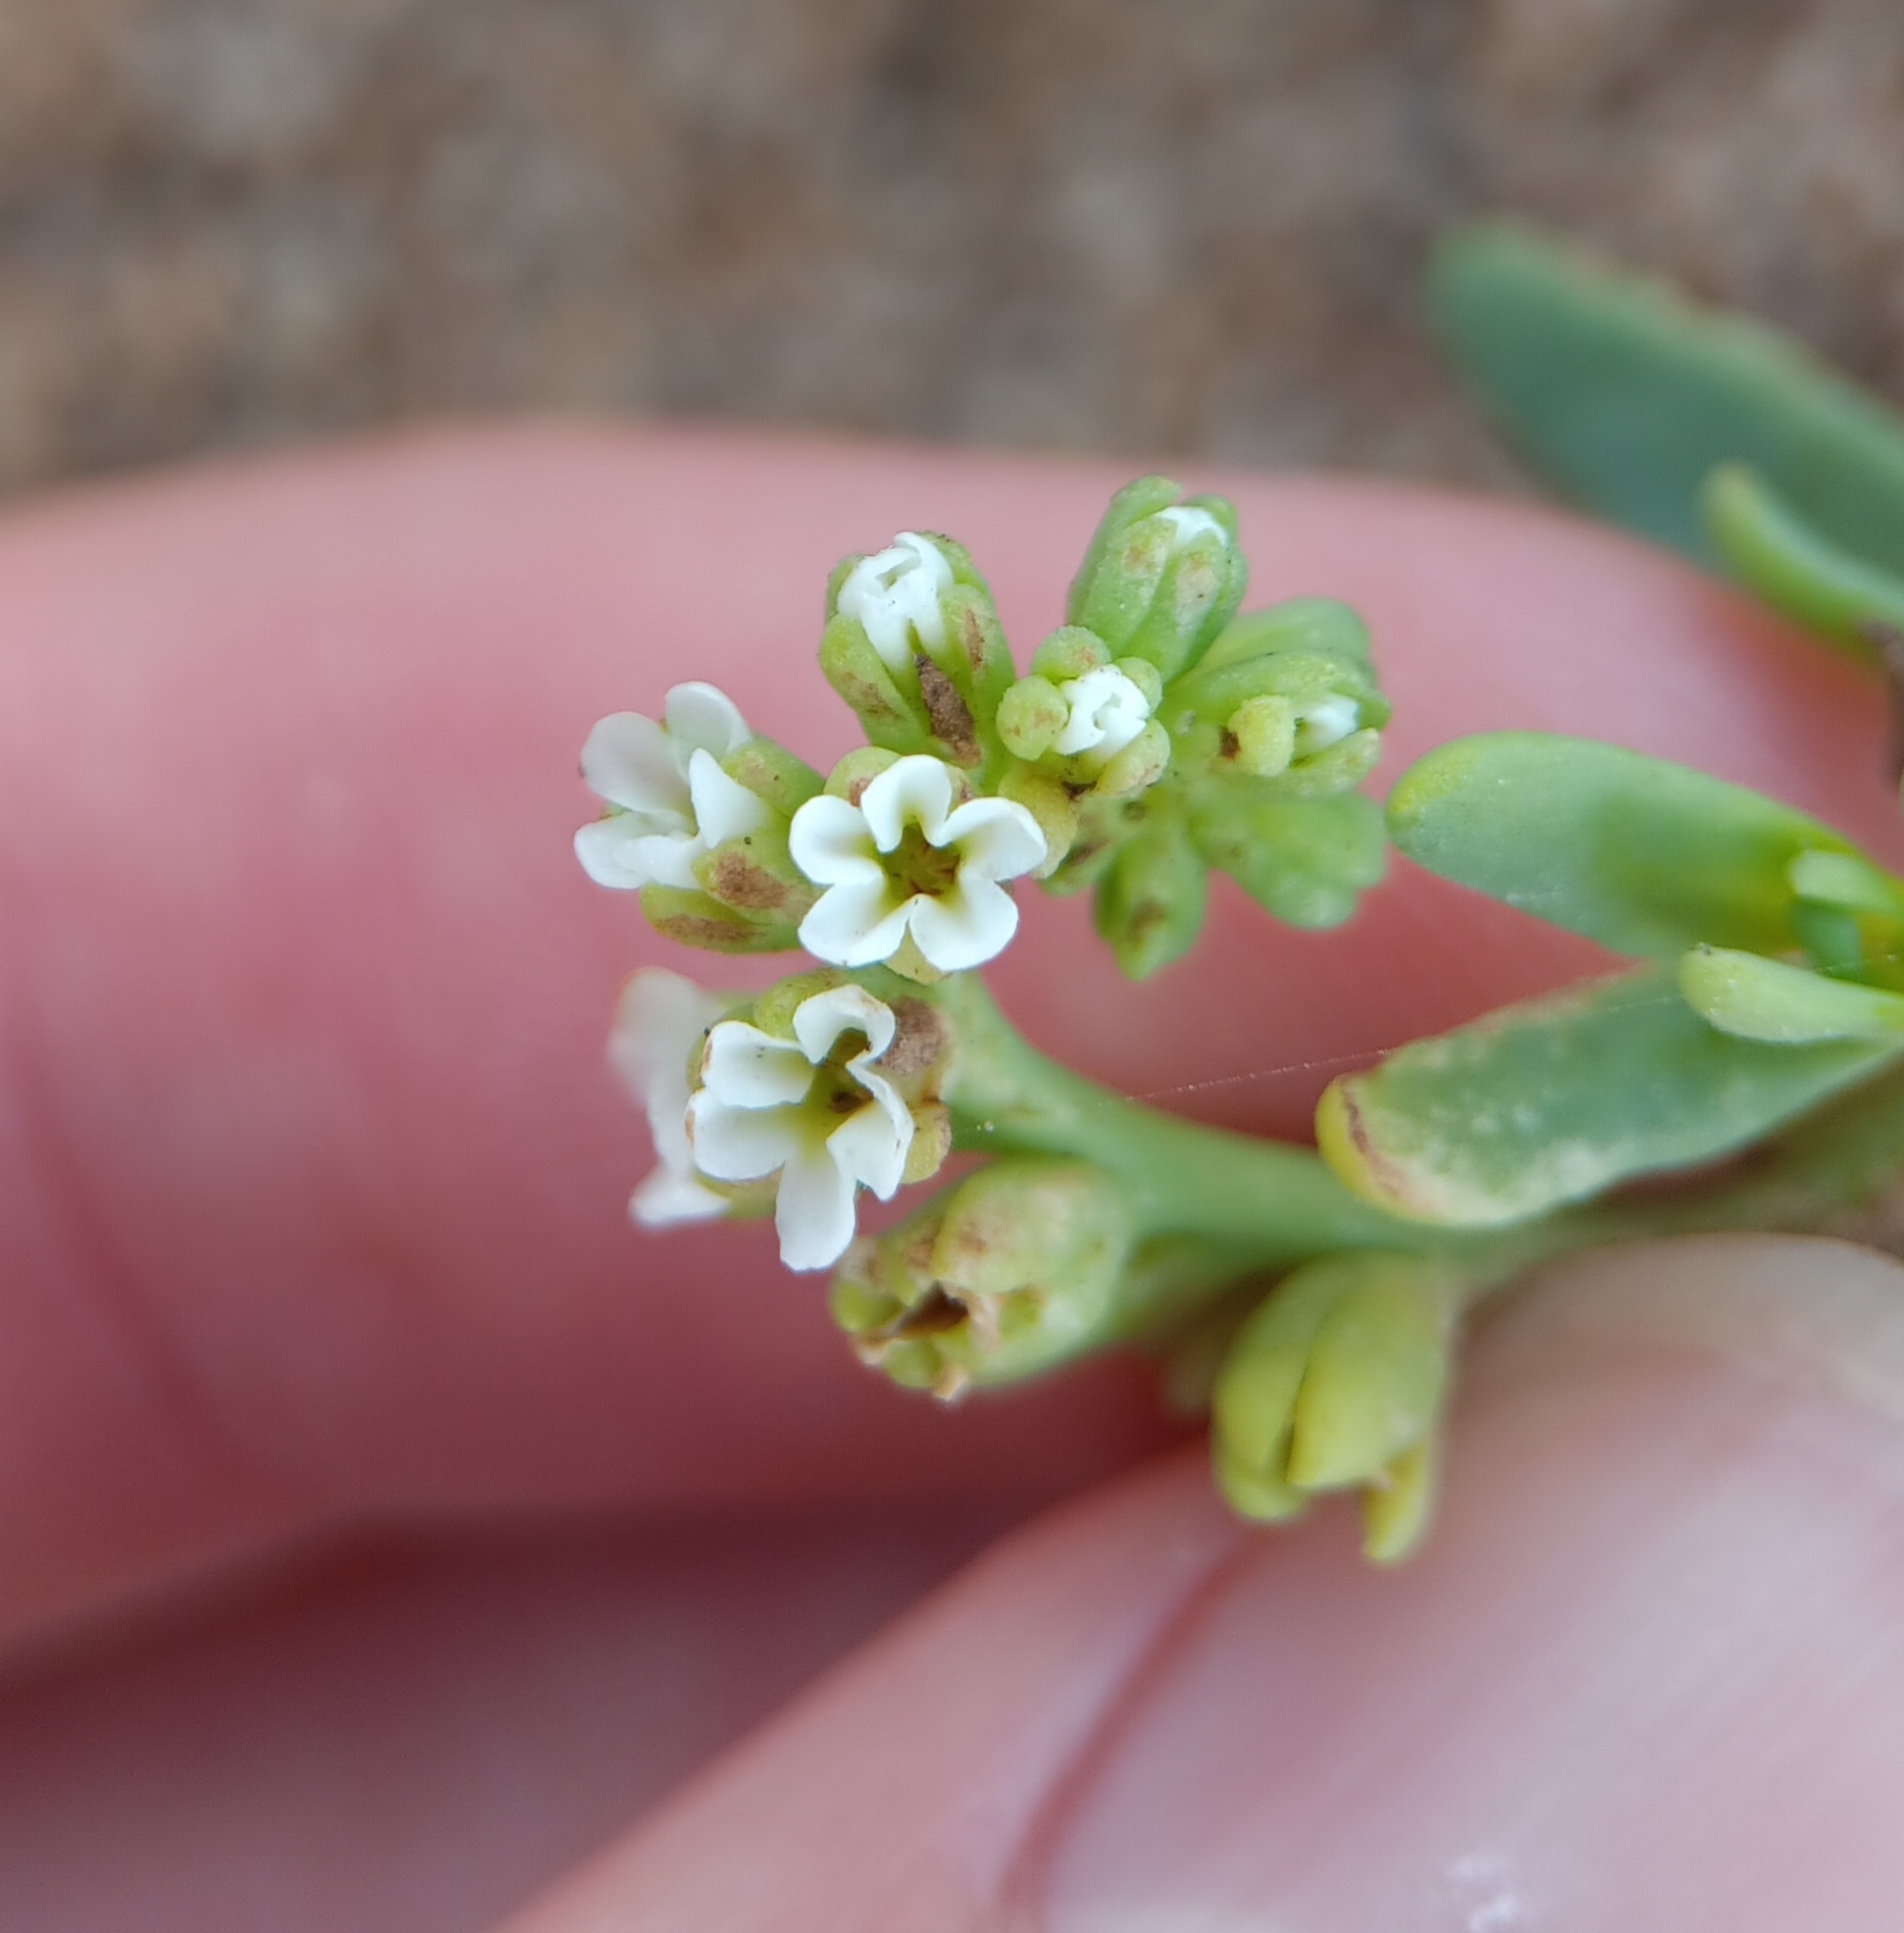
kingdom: Plantae
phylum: Tracheophyta
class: Magnoliopsida
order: Boraginales
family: Heliotropiaceae
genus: Heliotropium
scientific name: Heliotropium curassavicum
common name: Seaside heliotrope
